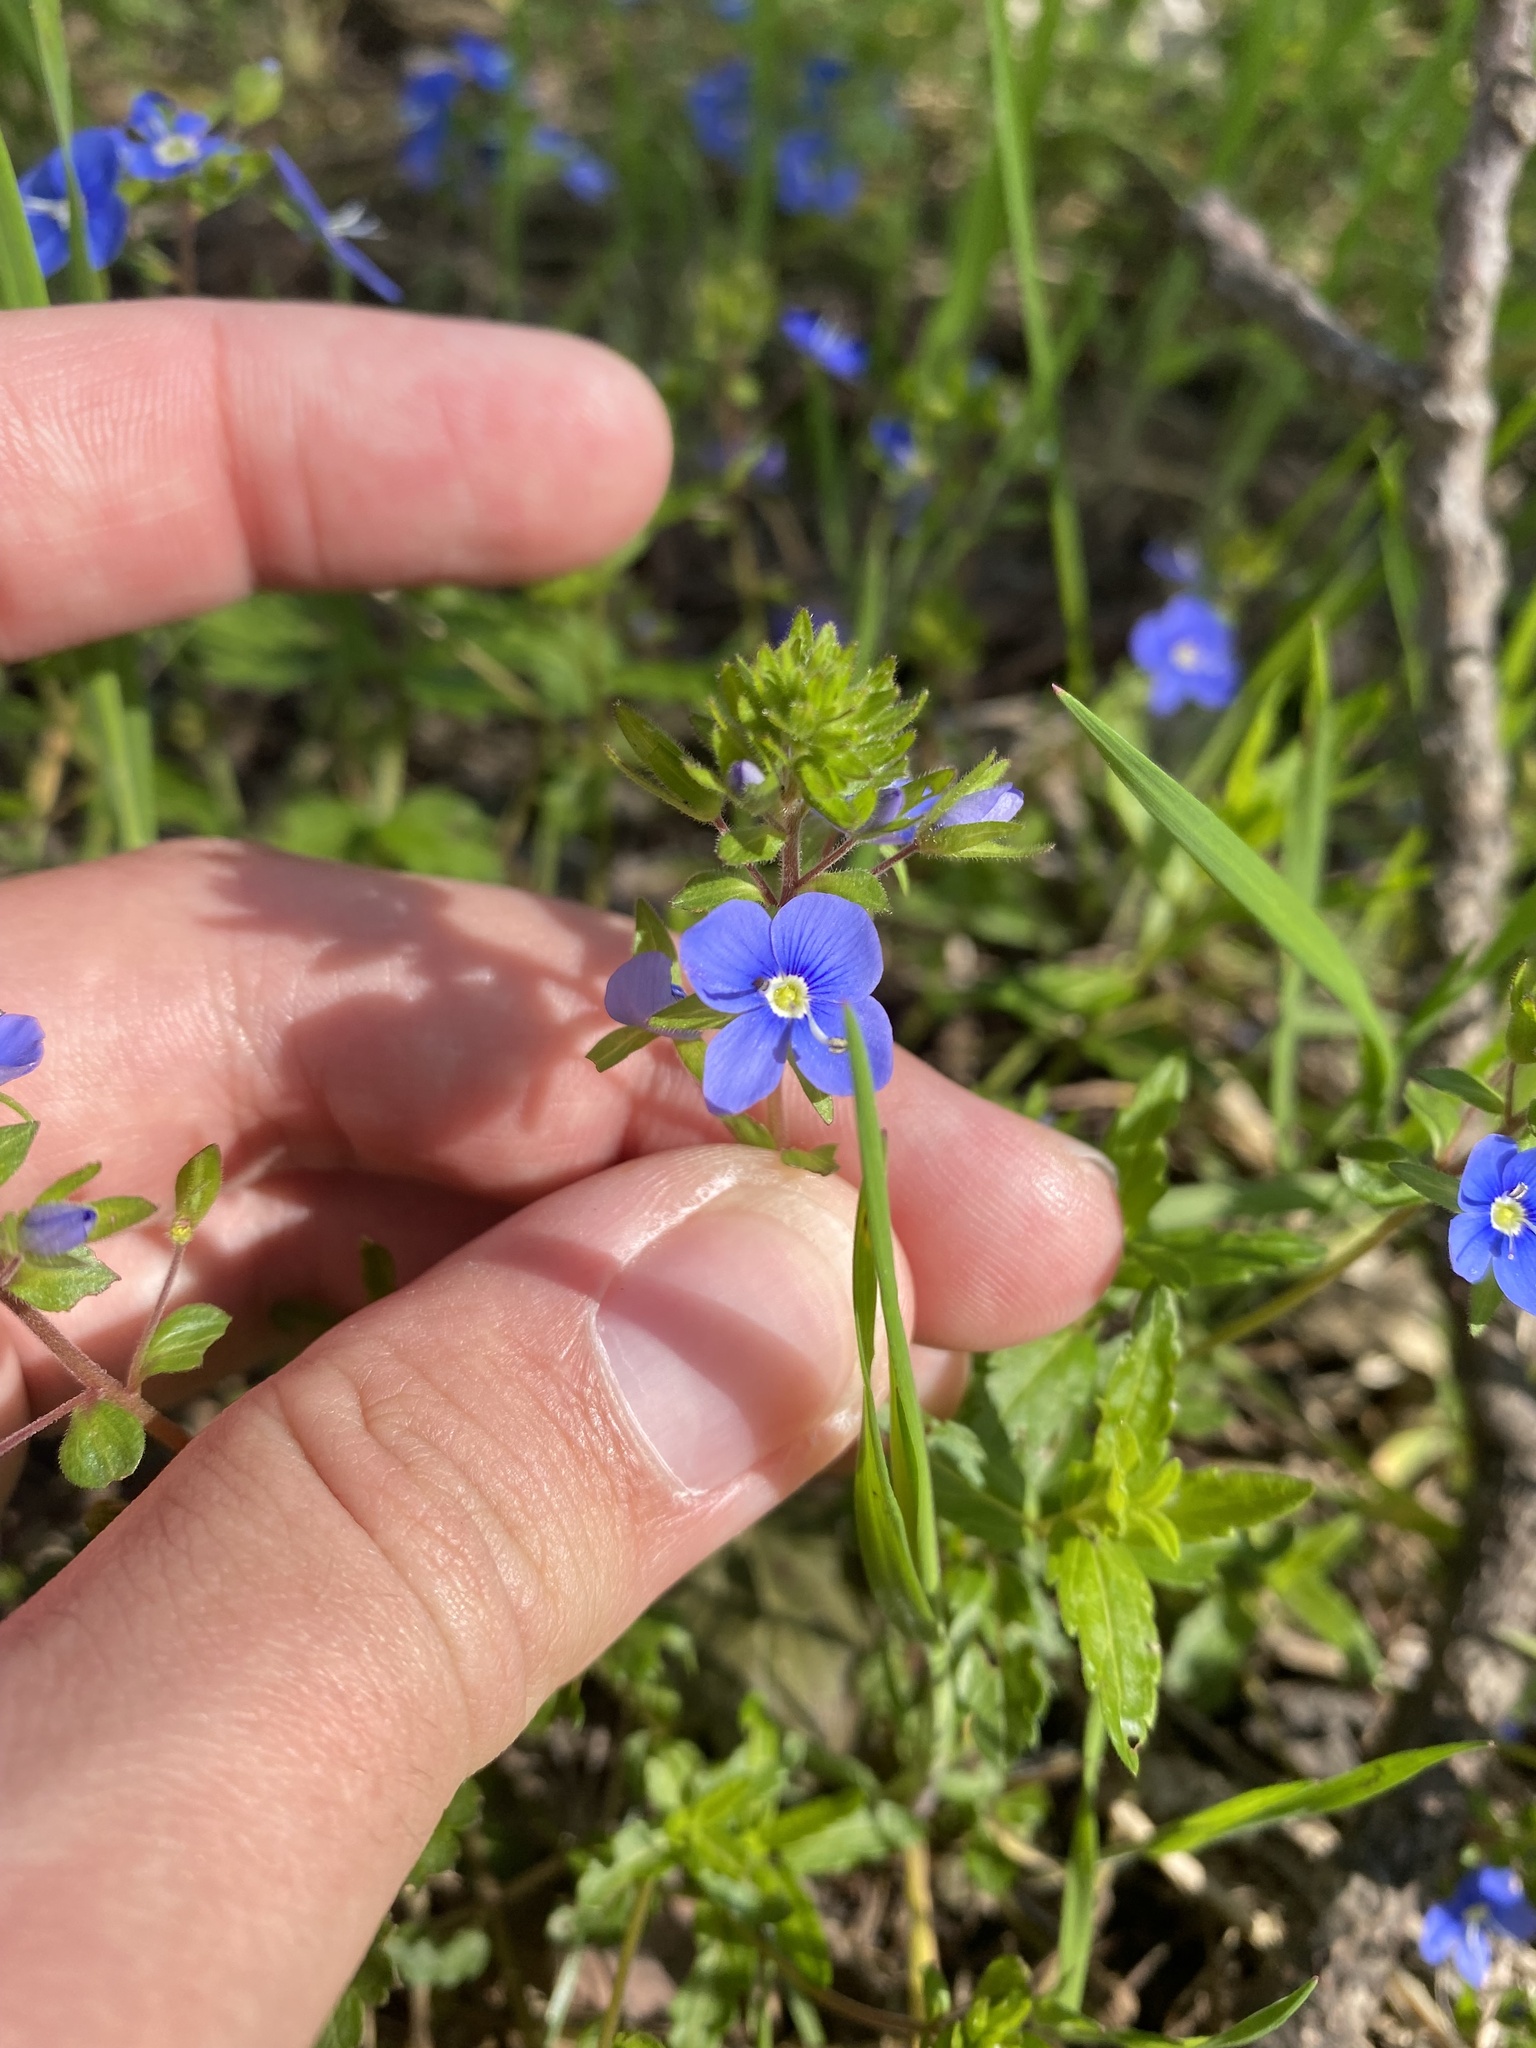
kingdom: Plantae
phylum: Tracheophyta
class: Magnoliopsida
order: Lamiales
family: Plantaginaceae
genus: Veronica
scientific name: Veronica
